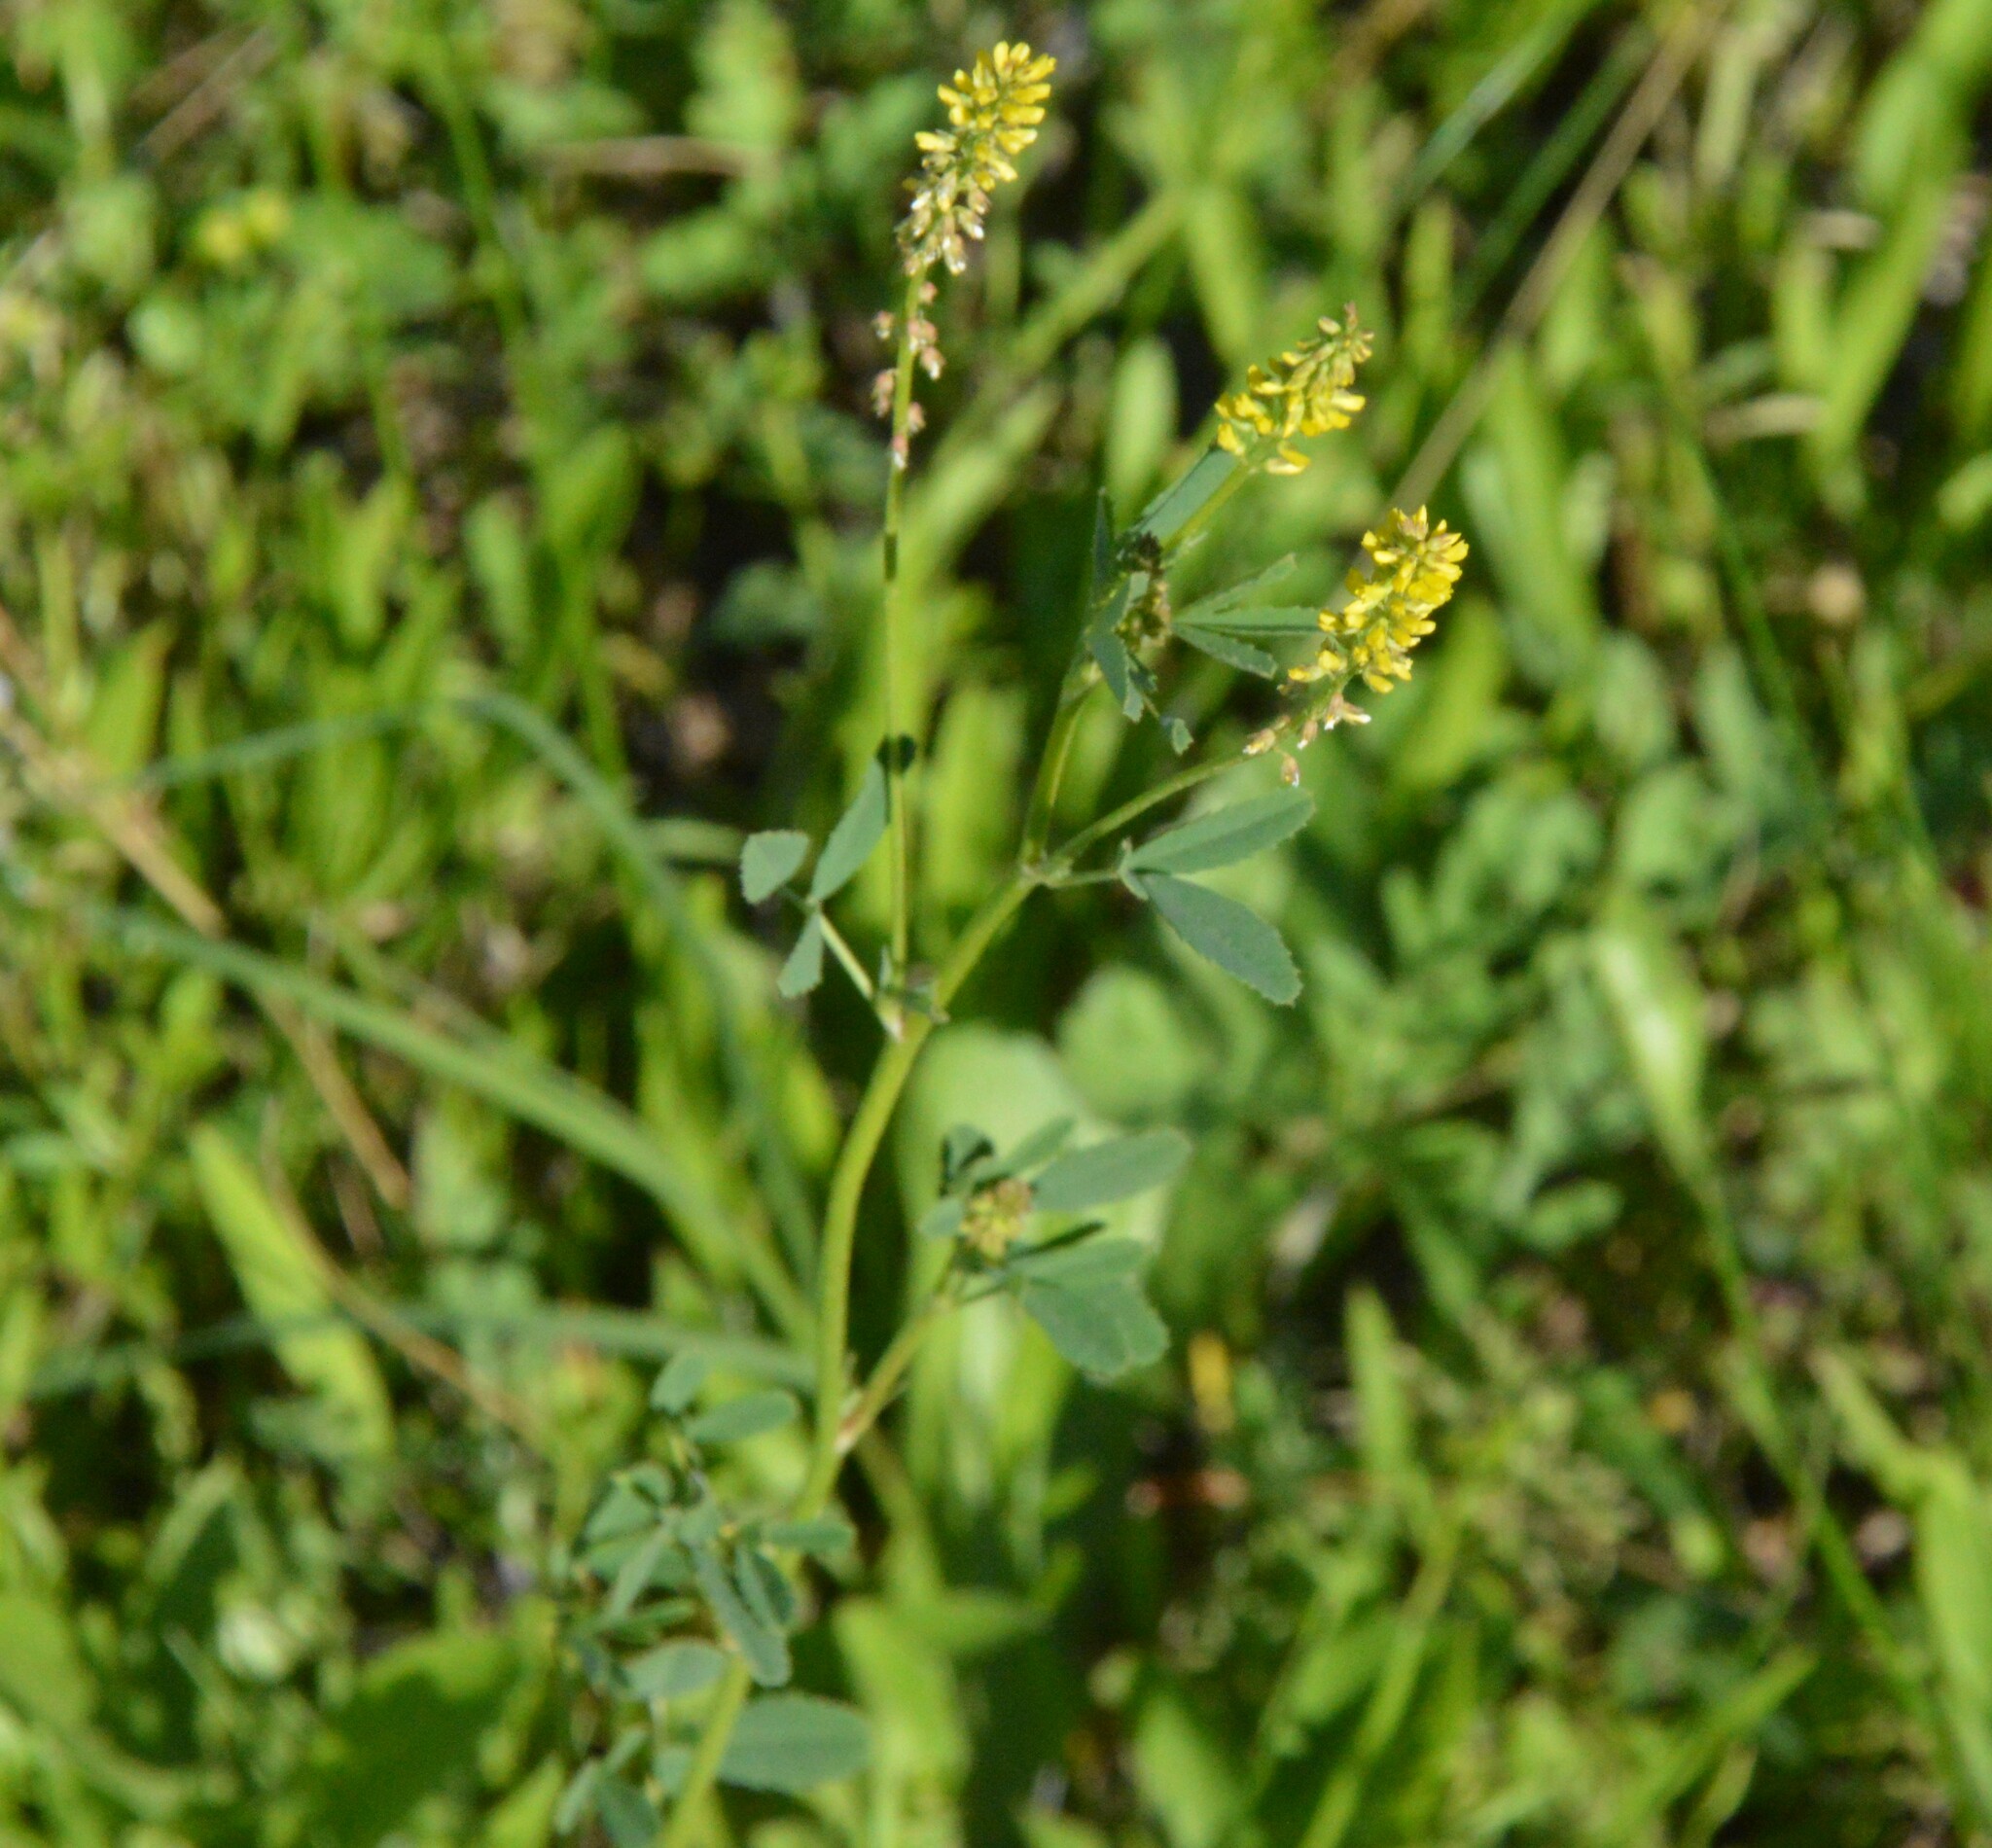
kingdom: Plantae
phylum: Tracheophyta
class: Magnoliopsida
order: Fabales
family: Fabaceae
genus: Melilotus
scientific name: Melilotus indicus
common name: Small melilot
